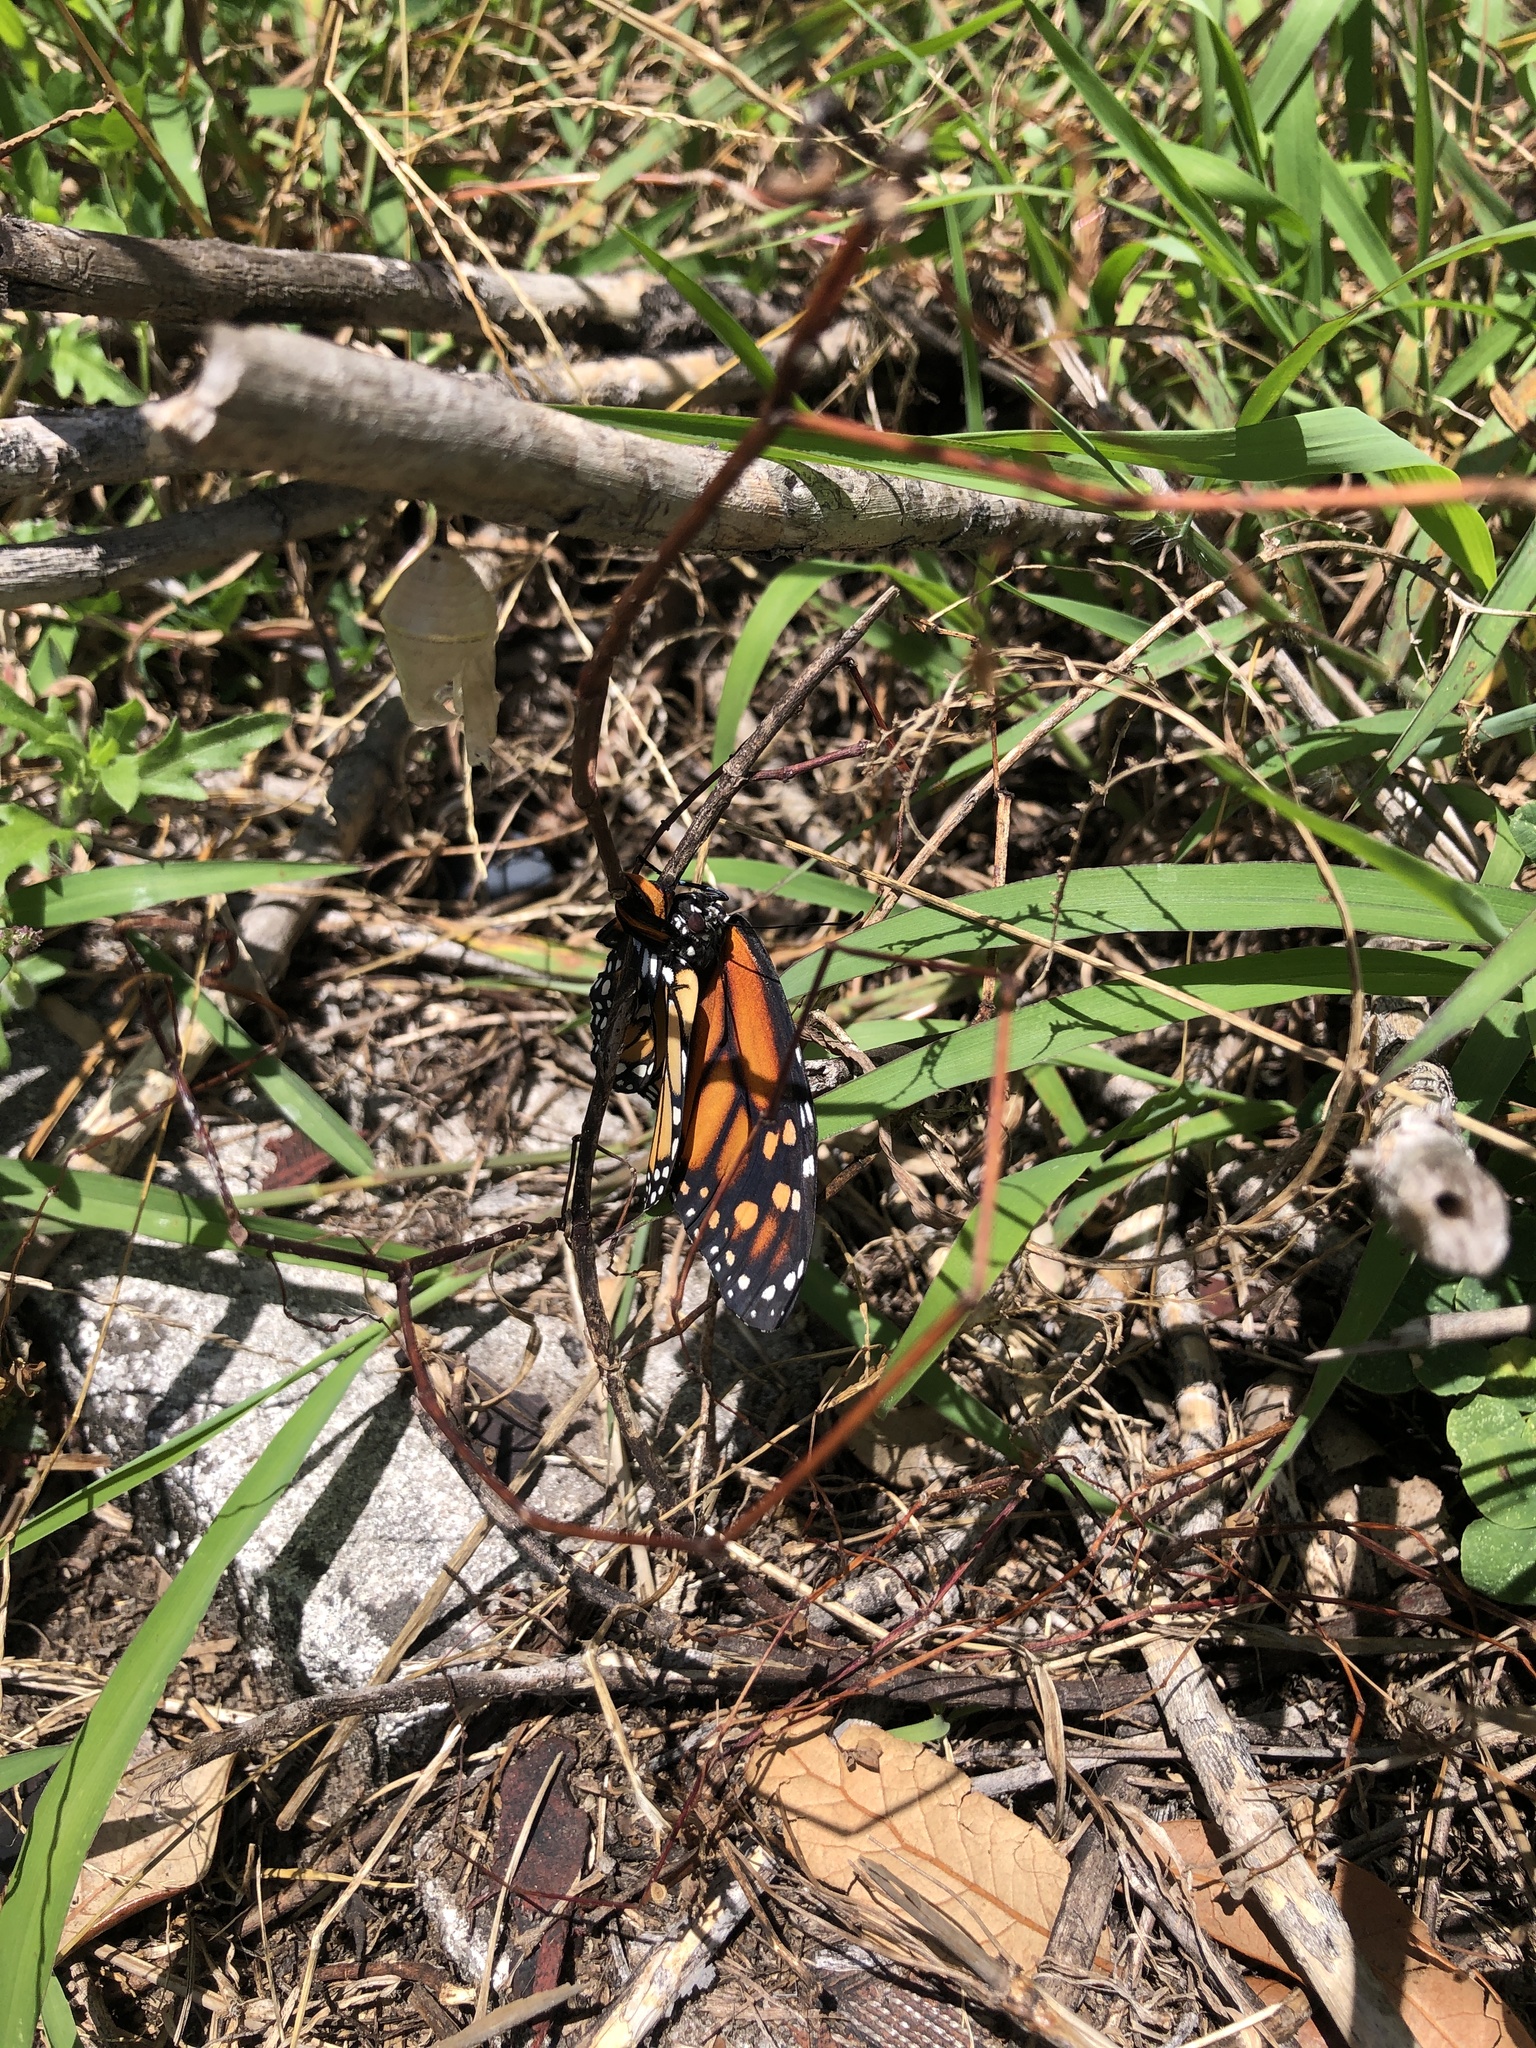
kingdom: Animalia
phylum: Arthropoda
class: Insecta
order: Lepidoptera
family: Nymphalidae
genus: Danaus
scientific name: Danaus plexippus
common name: Monarch
